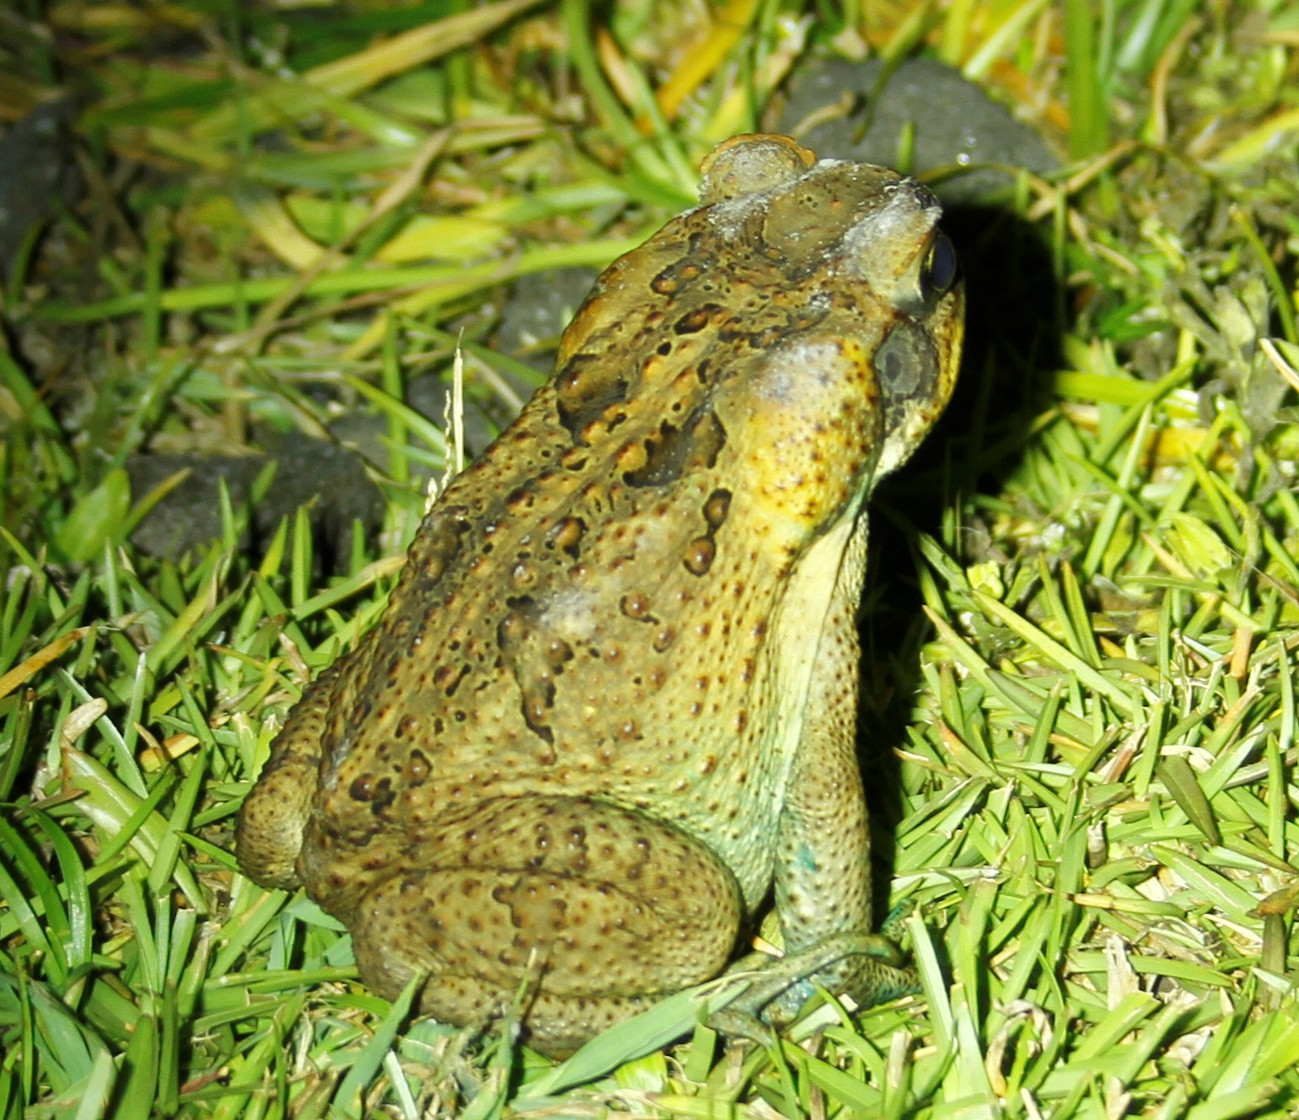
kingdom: Animalia
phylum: Chordata
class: Amphibia
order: Anura
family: Bufonidae
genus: Rhinella
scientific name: Rhinella marina
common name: Cane toad
